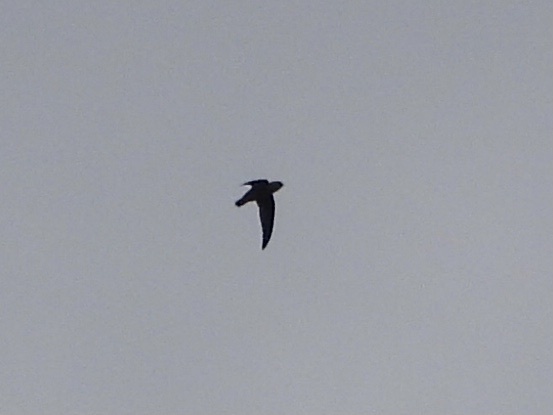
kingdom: Animalia
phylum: Chordata
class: Aves
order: Apodiformes
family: Apodidae
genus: Chaetura
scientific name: Chaetura vauxi
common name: Vaux's swift
